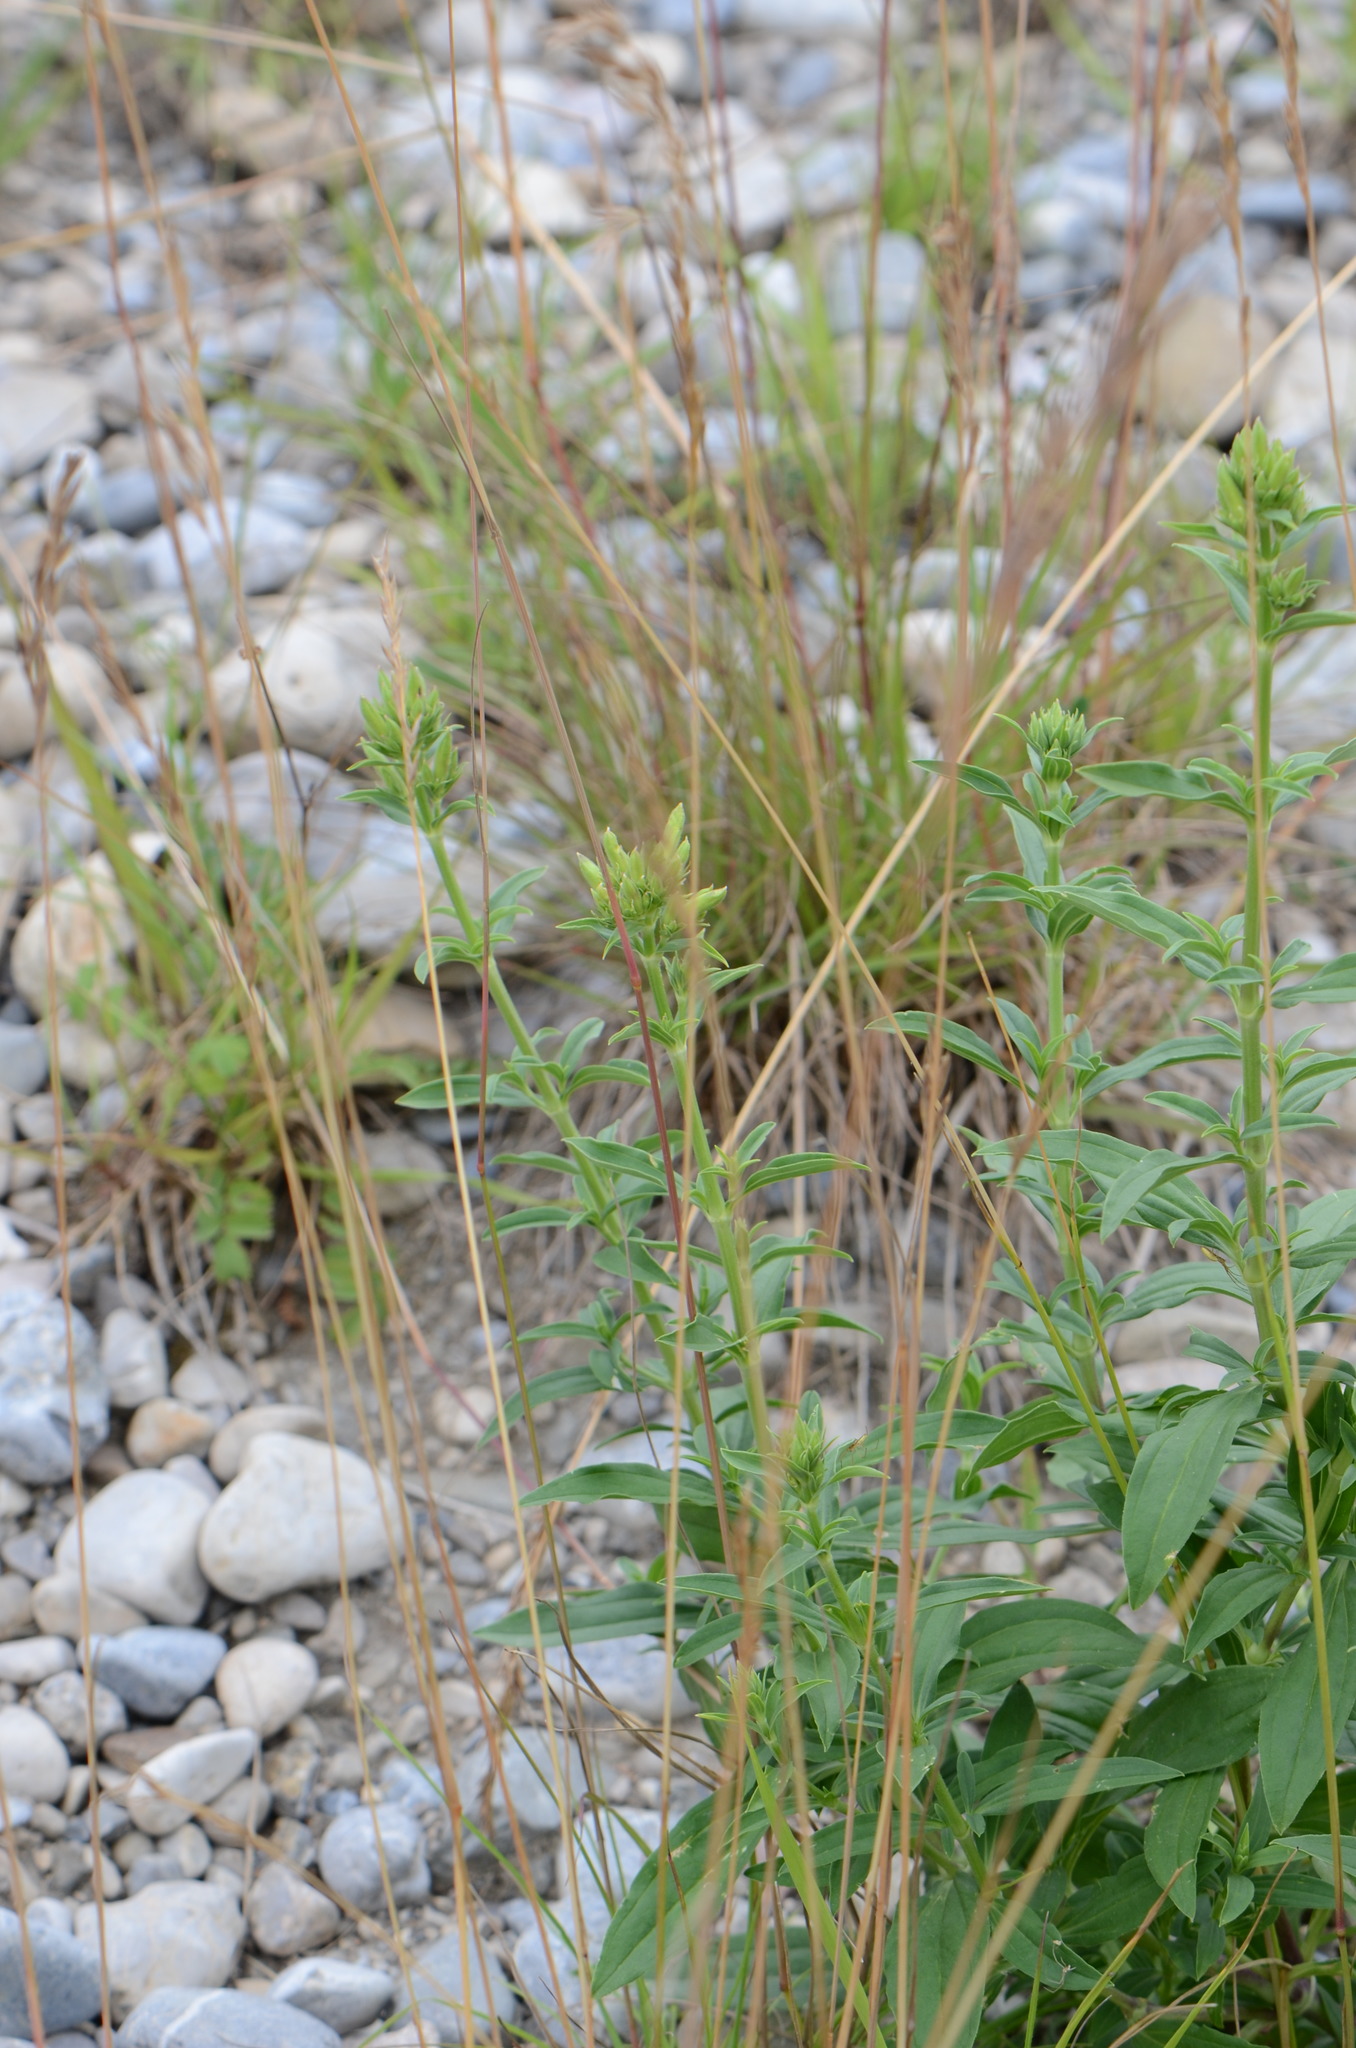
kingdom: Plantae
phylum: Tracheophyta
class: Magnoliopsida
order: Caryophyllales
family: Caryophyllaceae
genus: Saponaria
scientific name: Saponaria officinalis
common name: Soapwort
